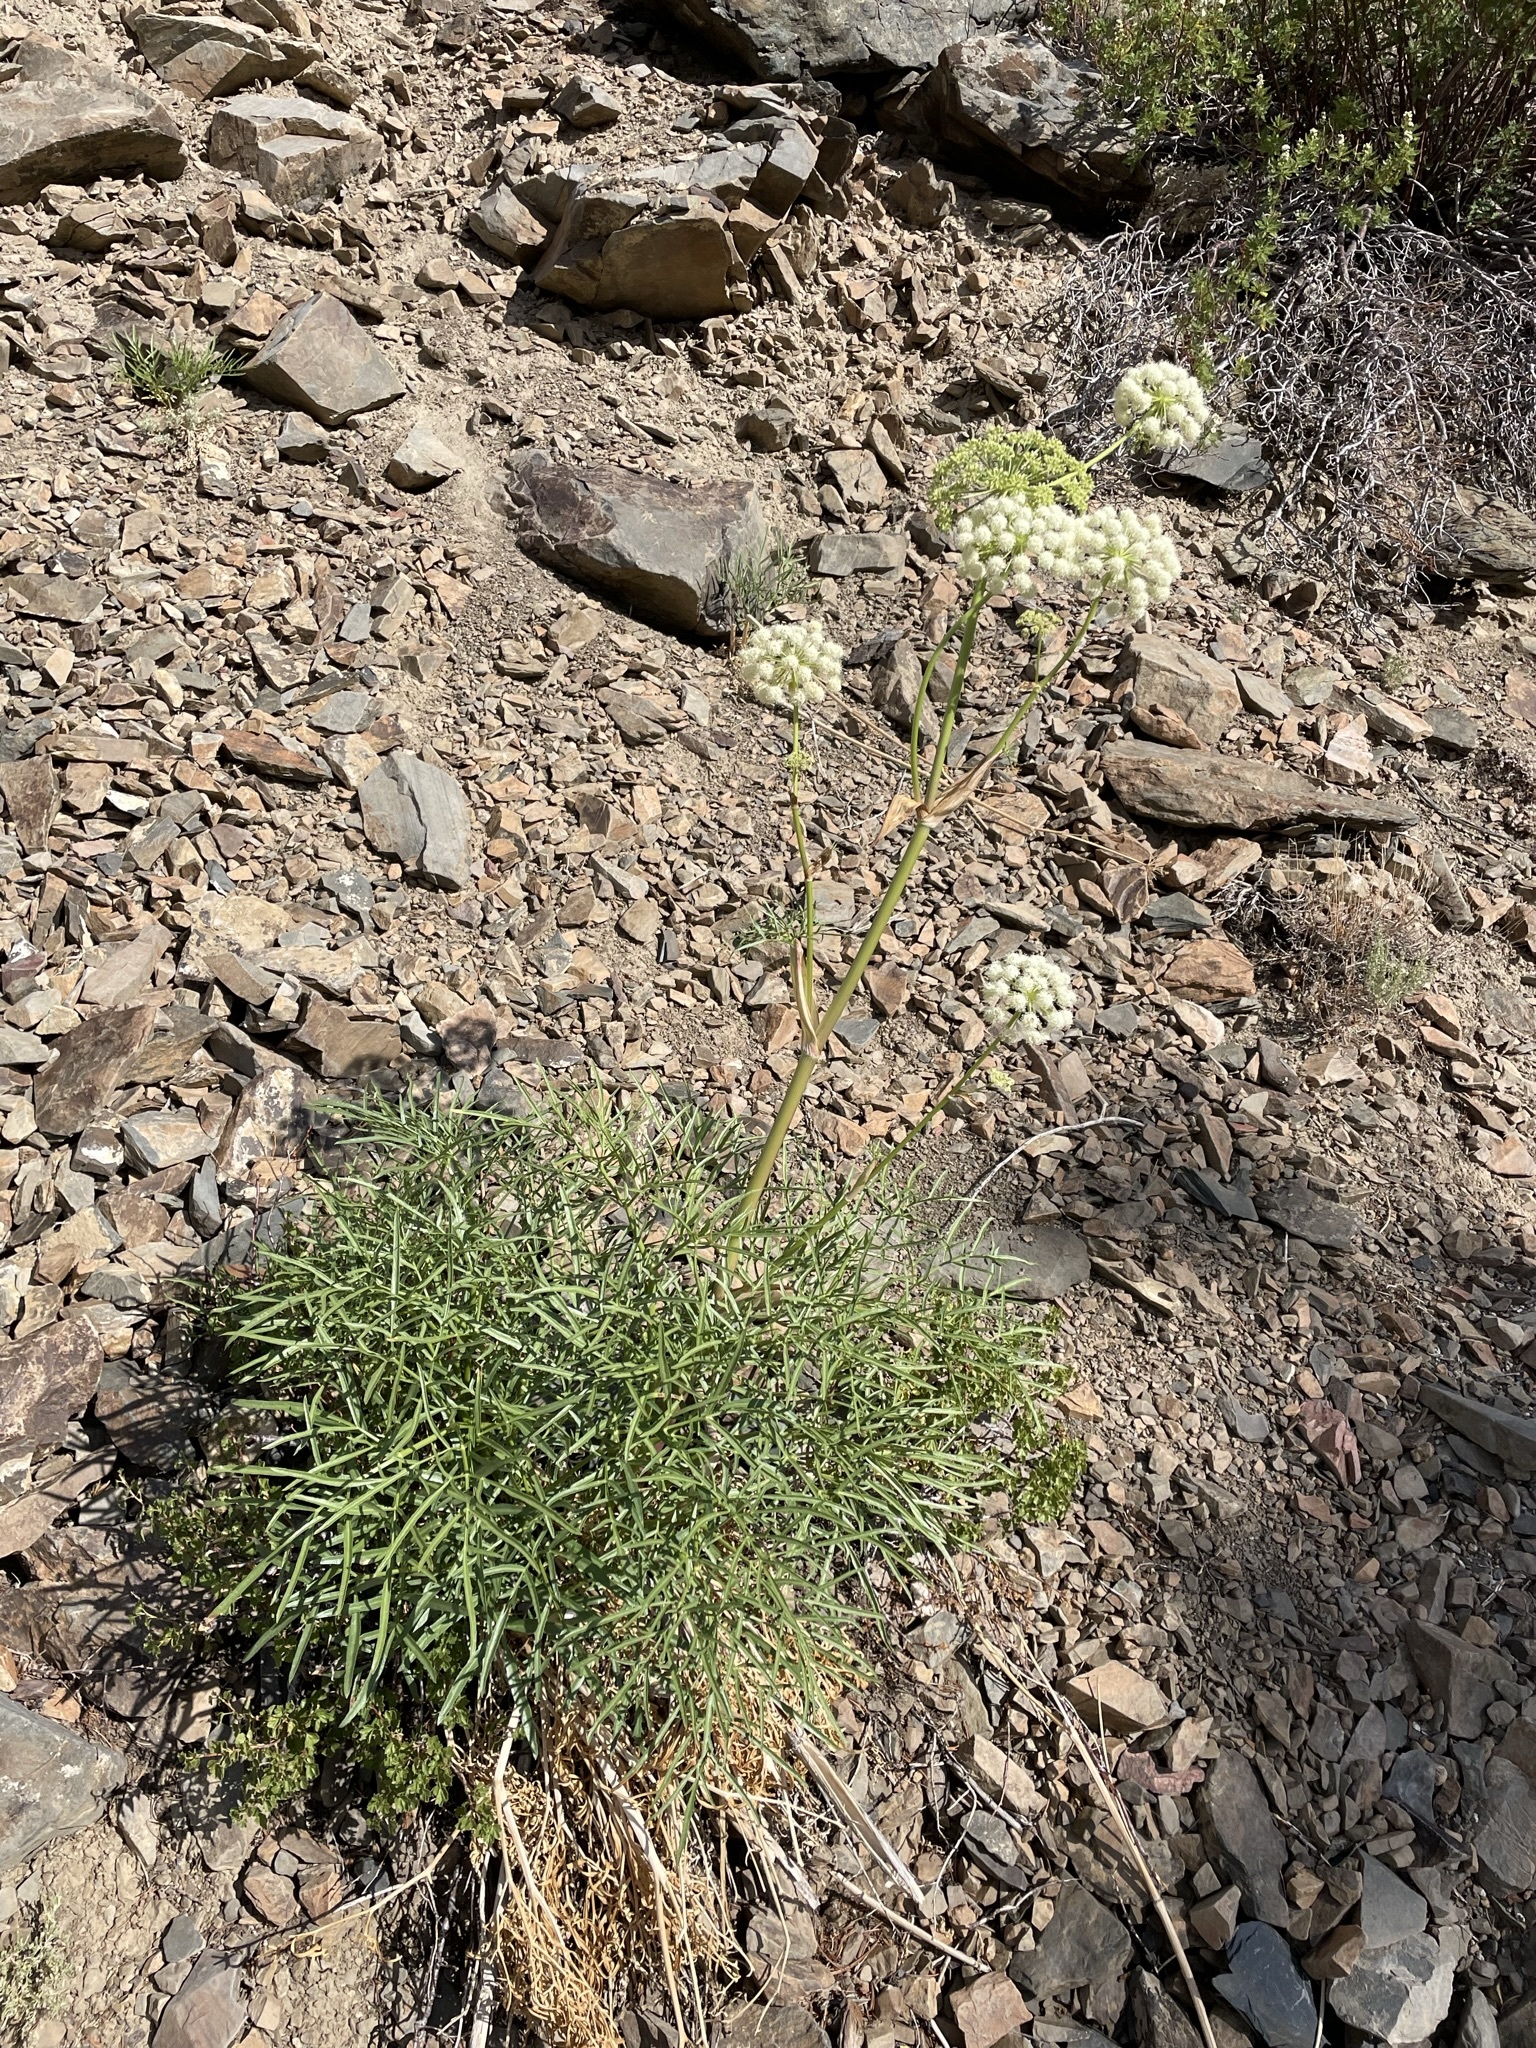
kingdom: Plantae
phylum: Tracheophyta
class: Magnoliopsida
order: Apiales
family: Apiaceae
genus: Angelica
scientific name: Angelica lineariloba
